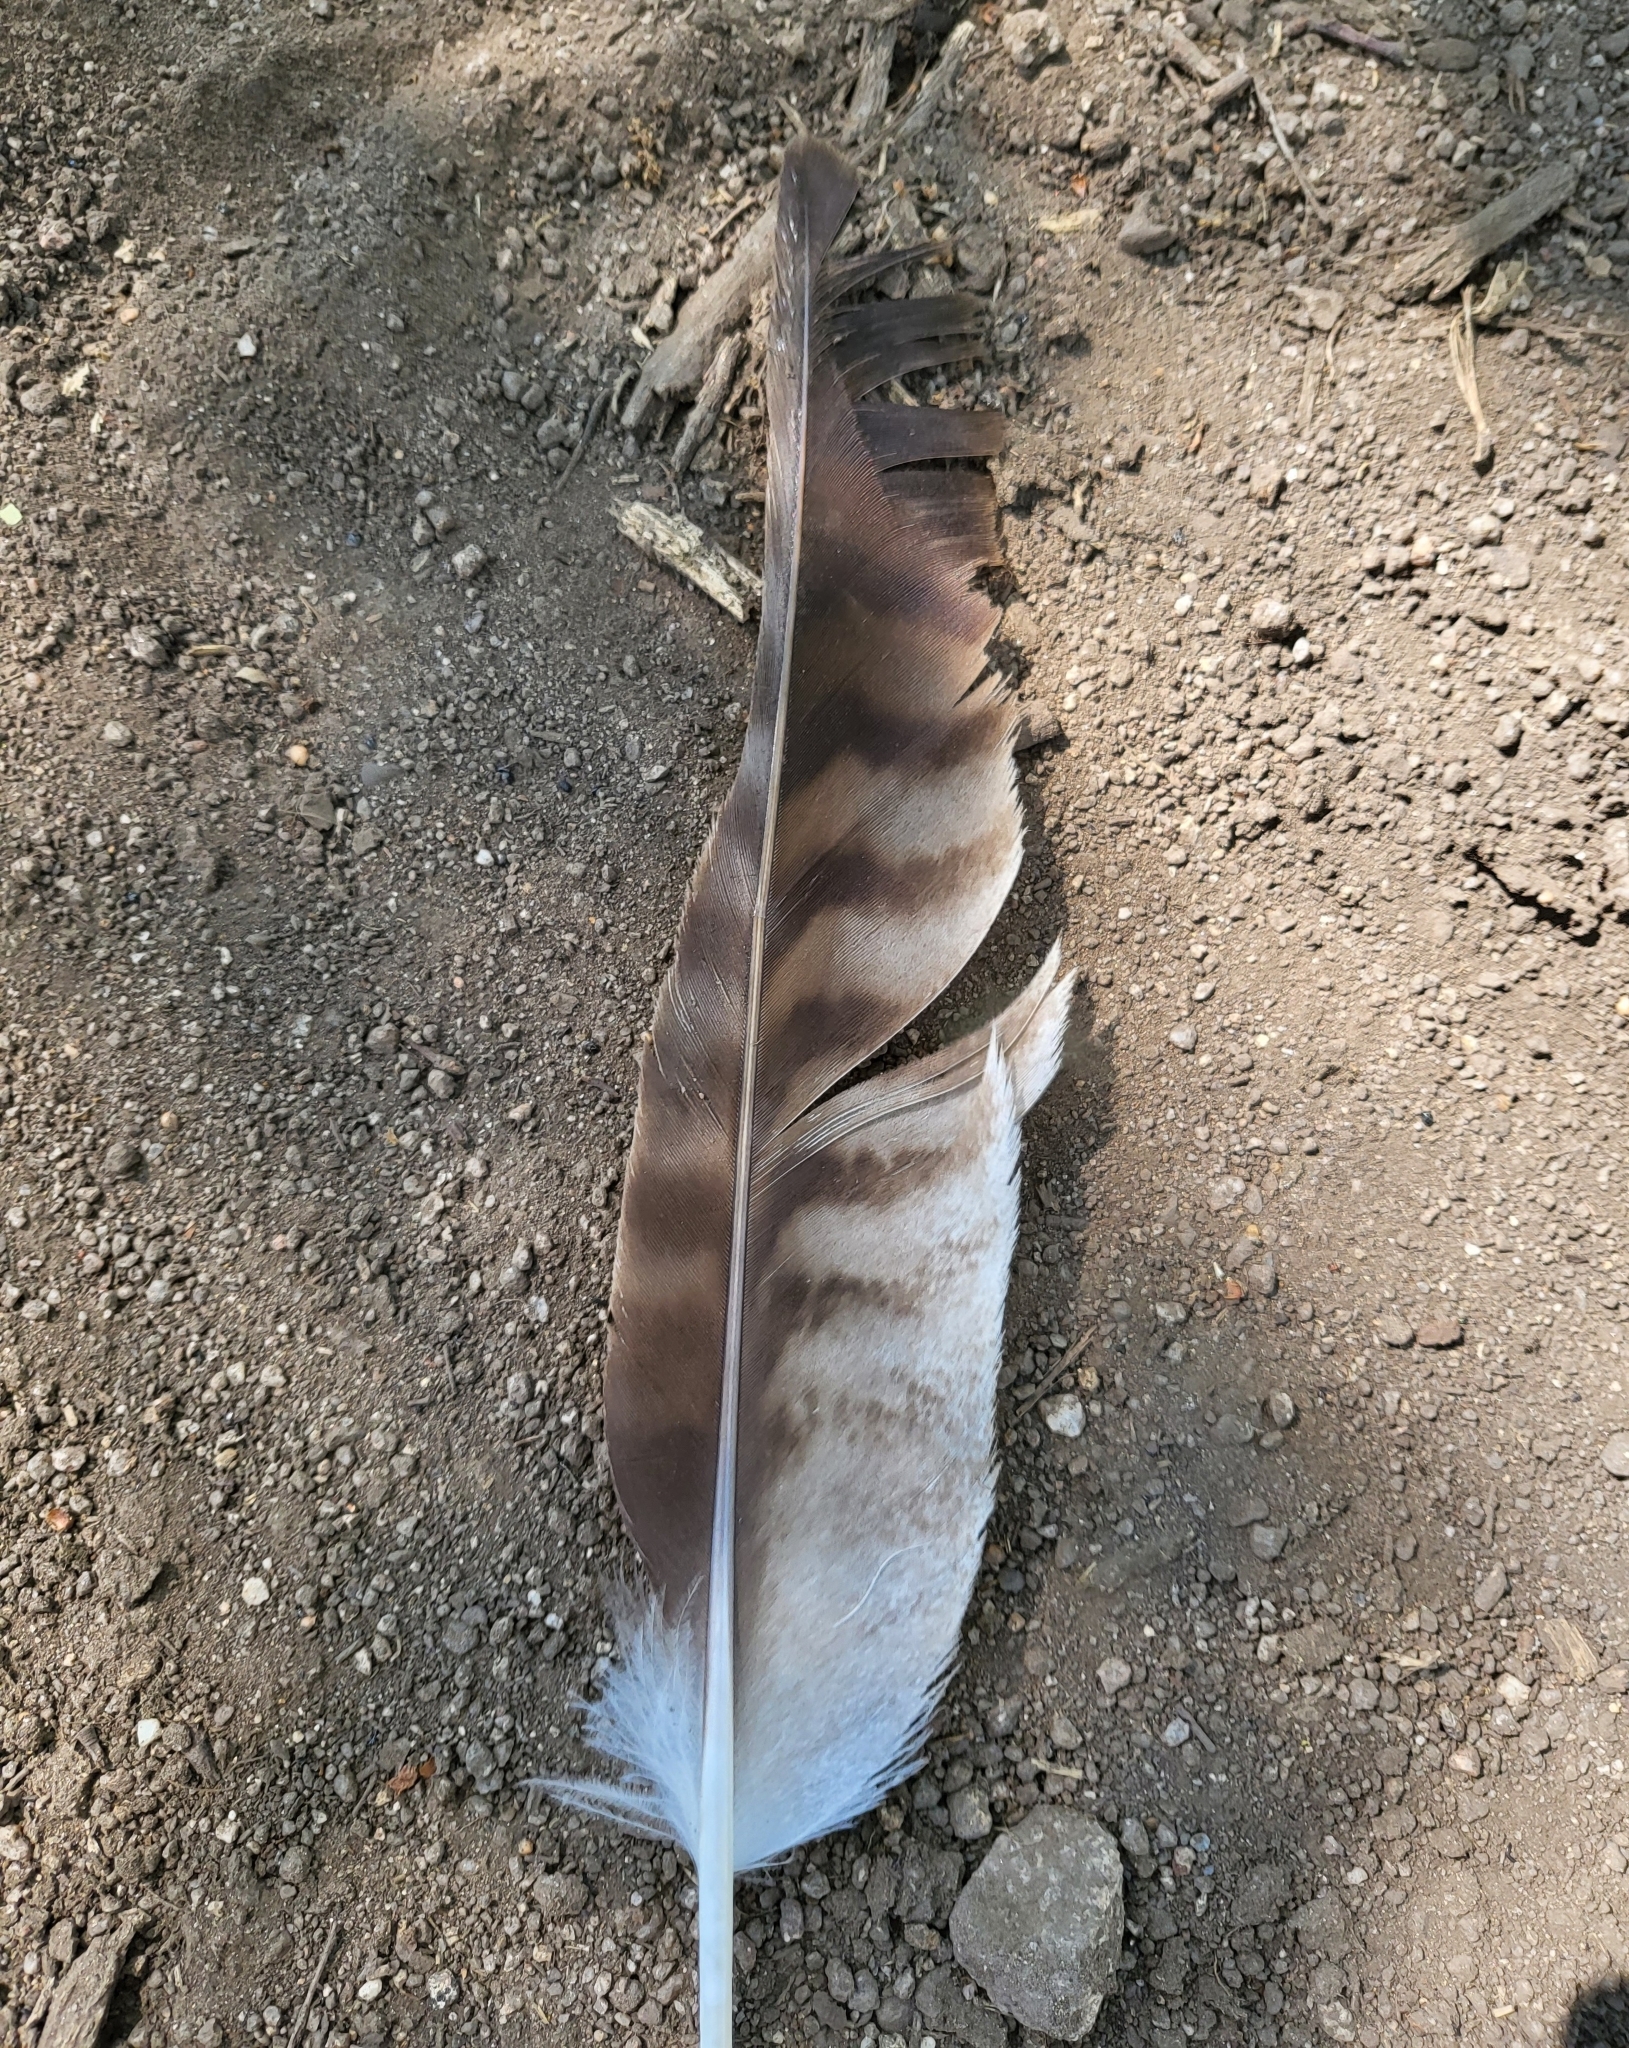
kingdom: Animalia
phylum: Chordata
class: Aves
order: Accipitriformes
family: Accipitridae
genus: Buteo
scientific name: Buteo jamaicensis
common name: Red-tailed hawk
